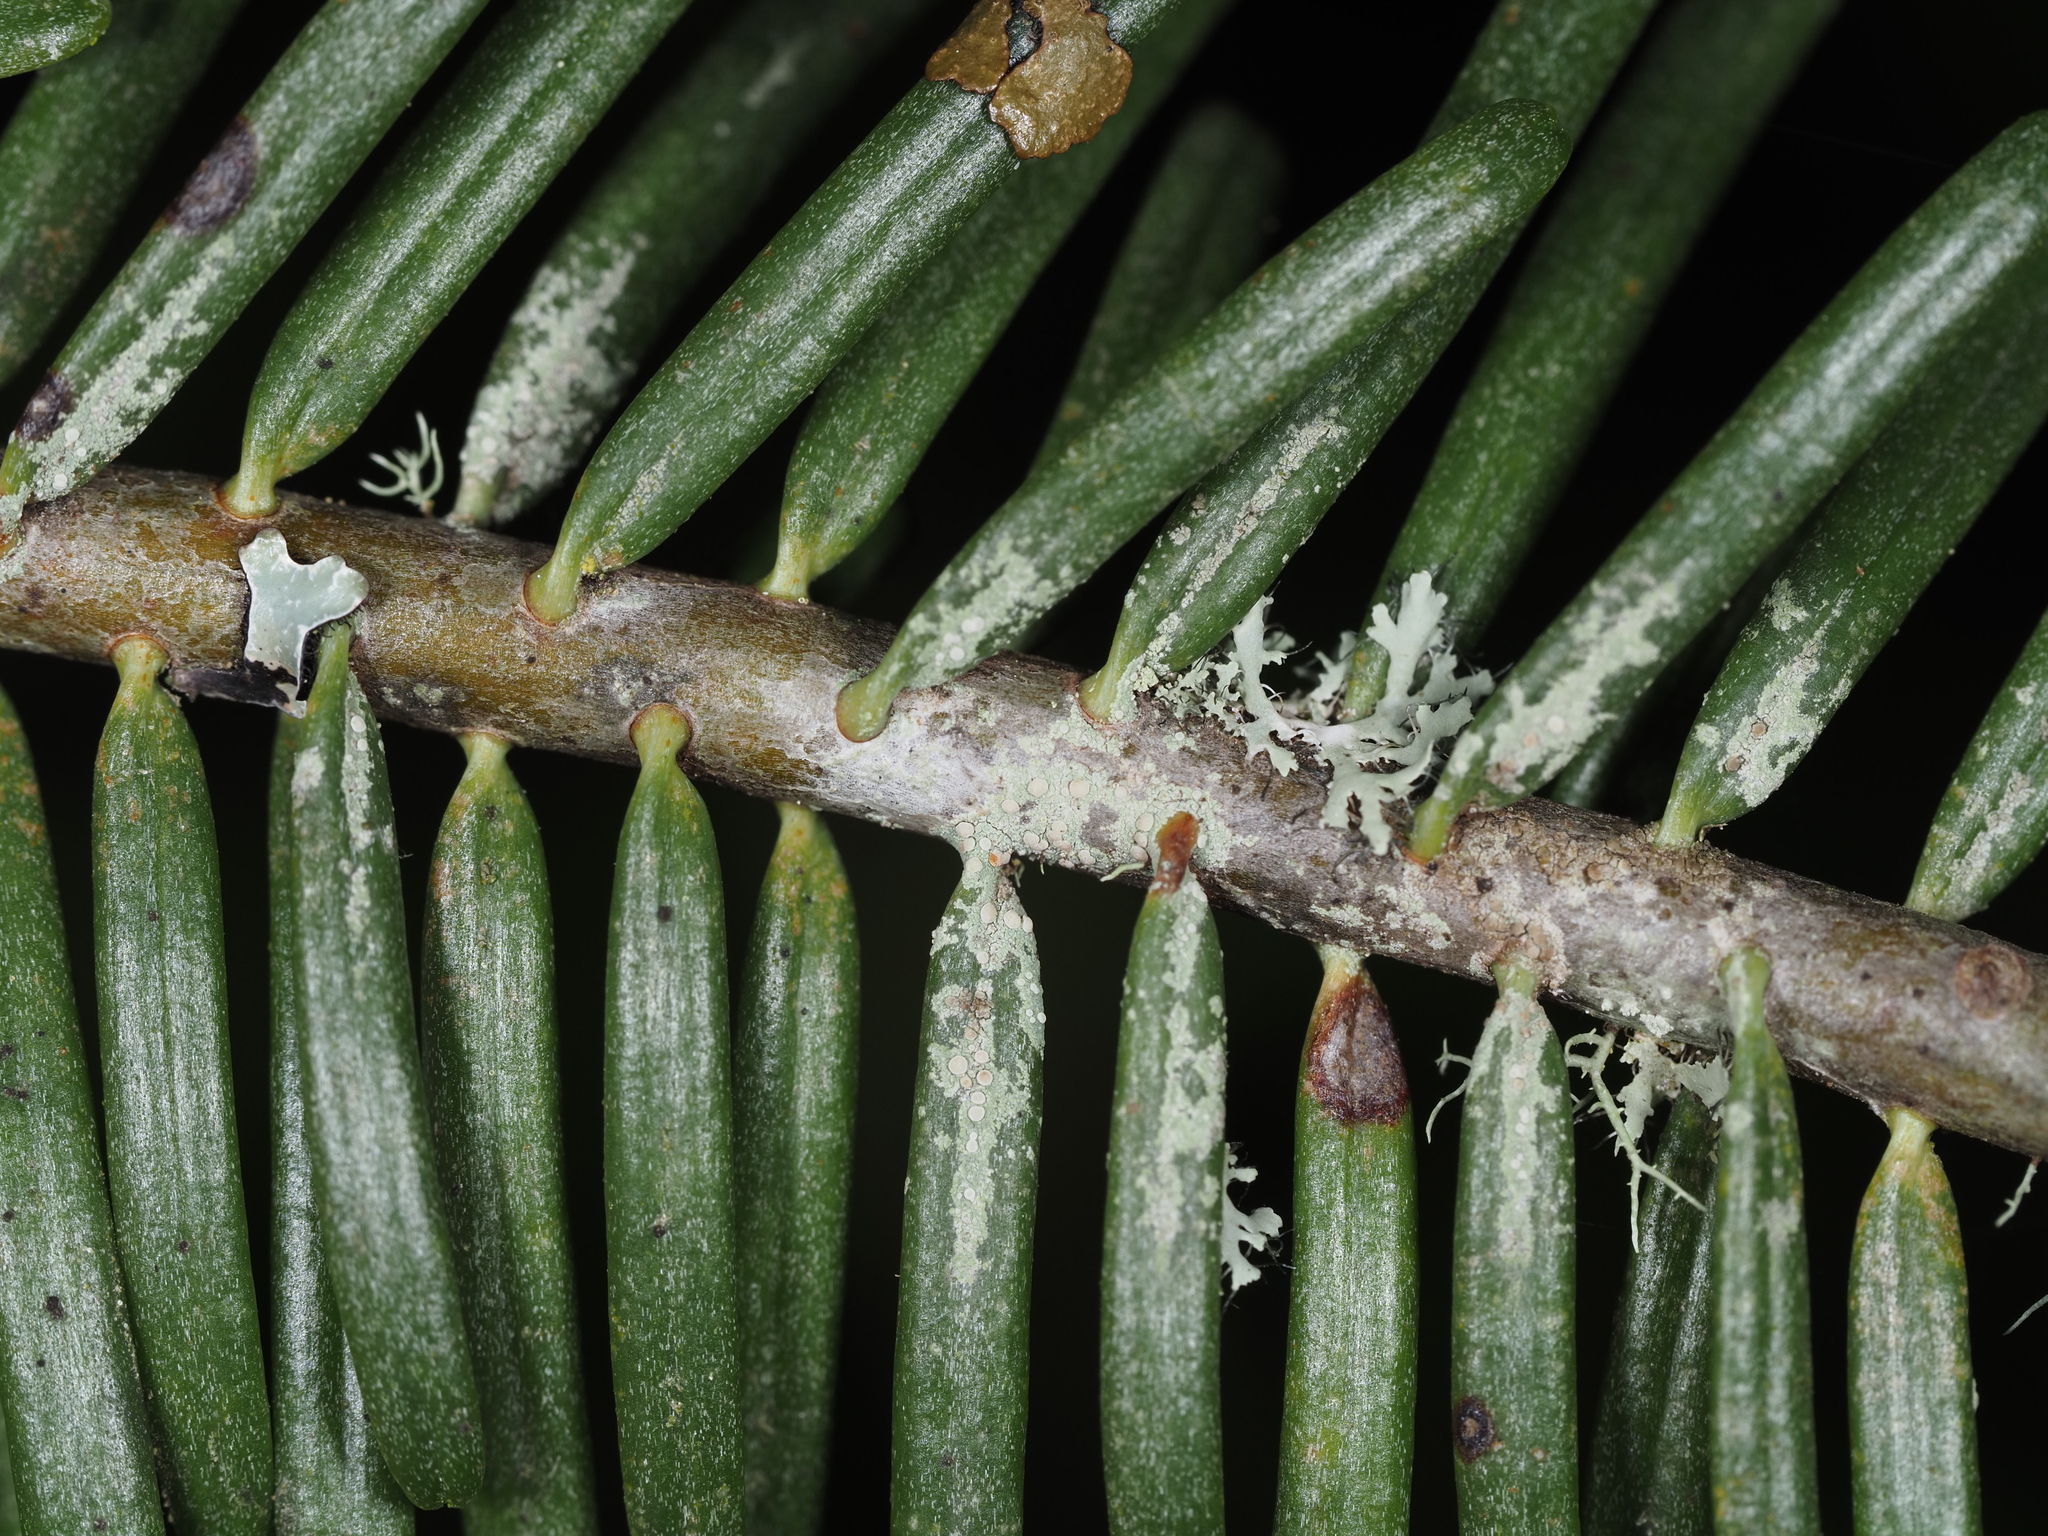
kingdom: Fungi
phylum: Ascomycota
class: Lecanoromycetes
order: Lecanorales
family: Byssolomataceae
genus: Fellhanera
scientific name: Fellhanera bouteillei
